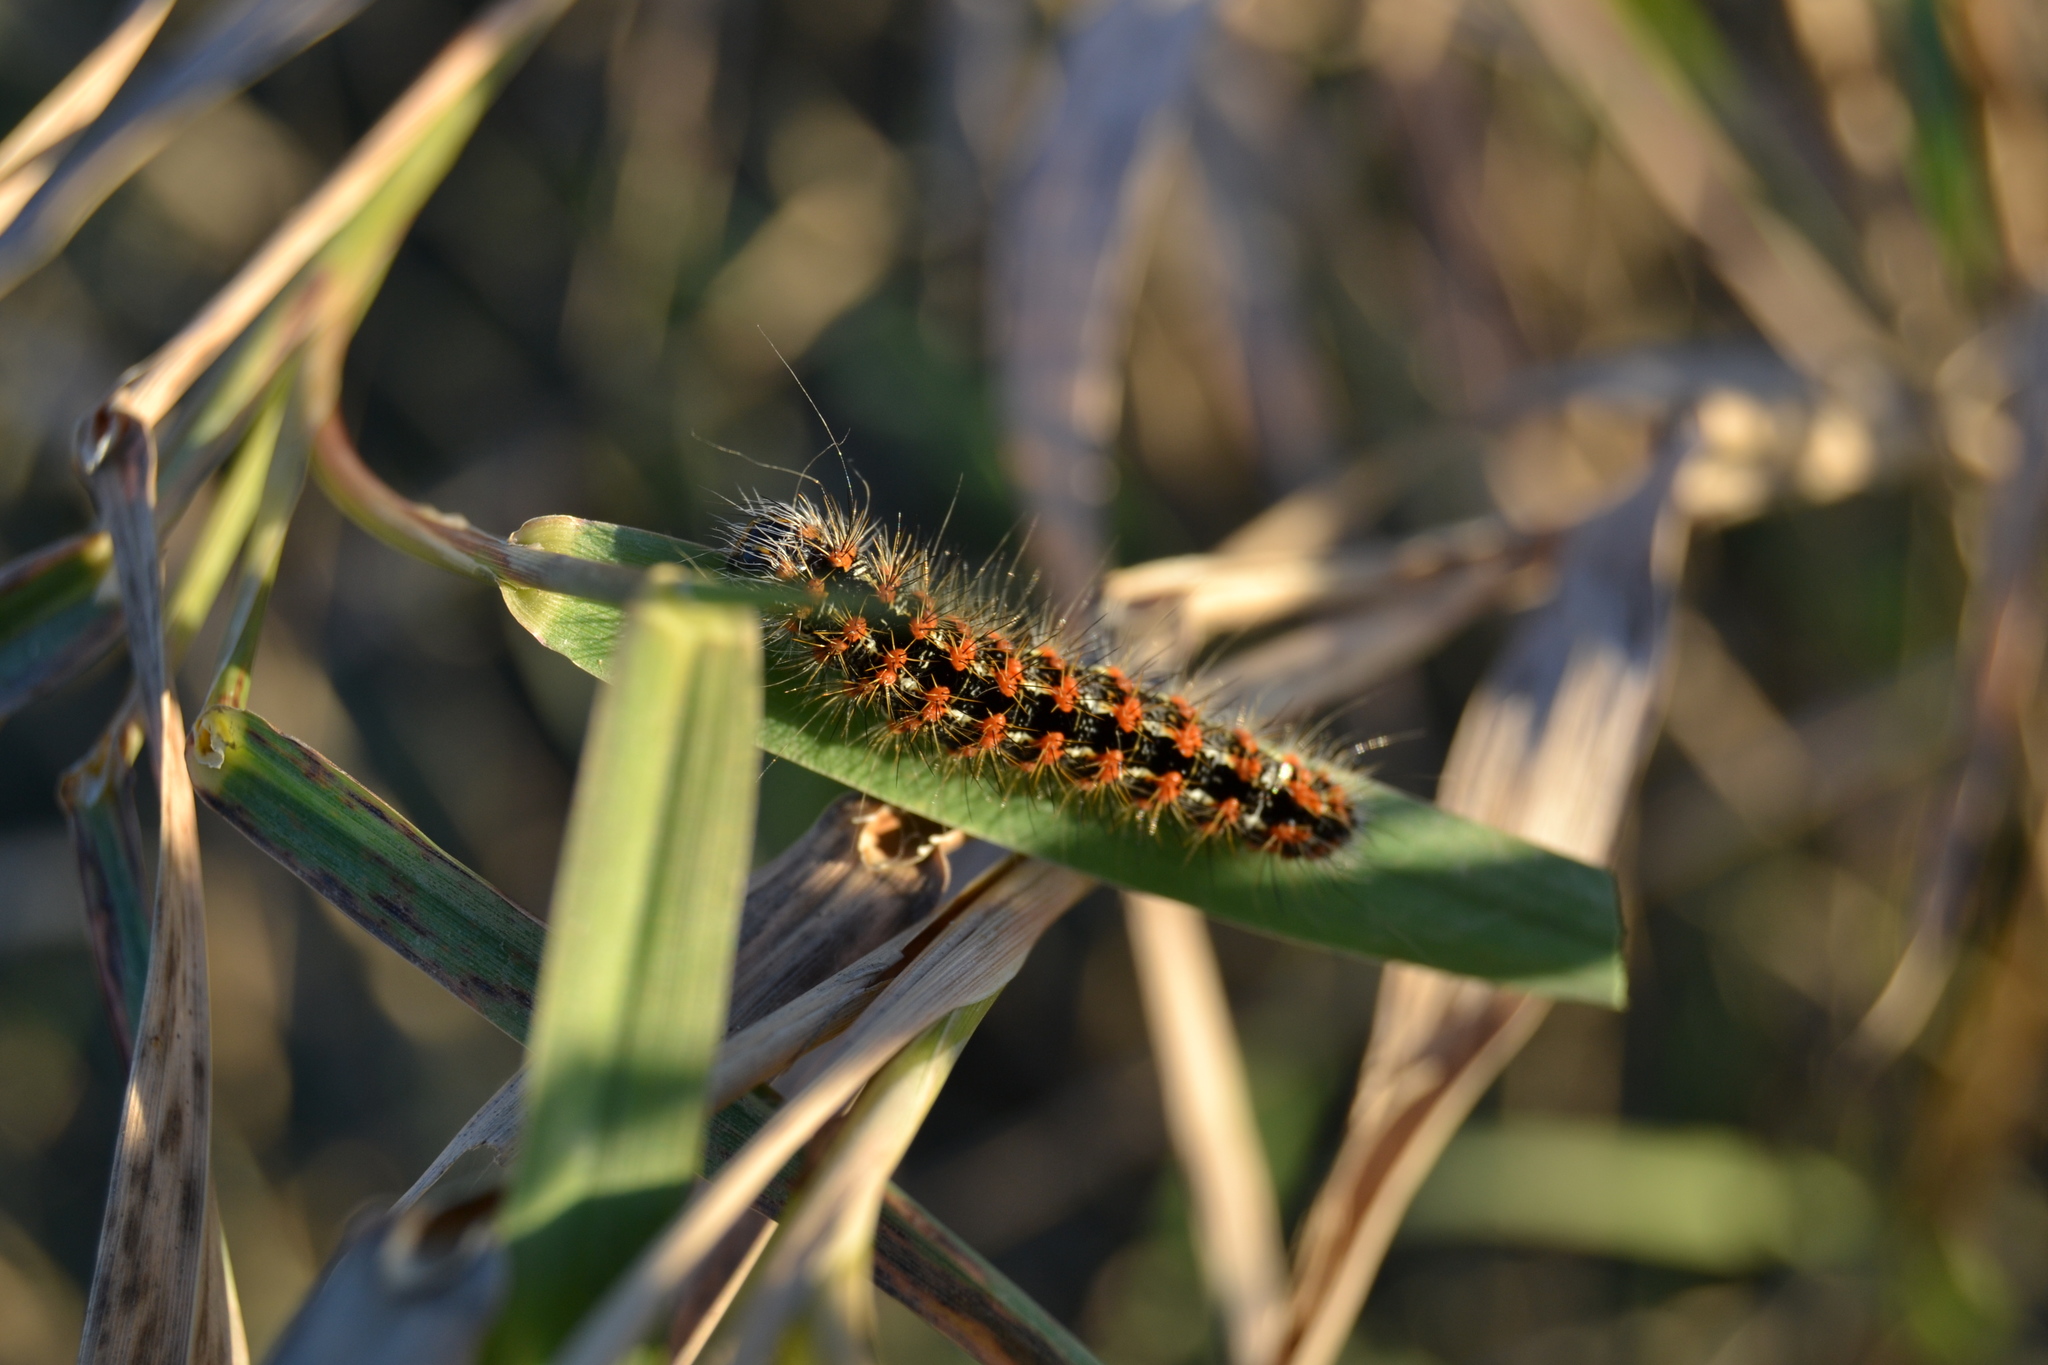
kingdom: Animalia
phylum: Arthropoda
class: Insecta
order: Lepidoptera
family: Noctuidae
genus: Acronicta
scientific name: Acronicta insularis
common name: Henry's marsh moth
